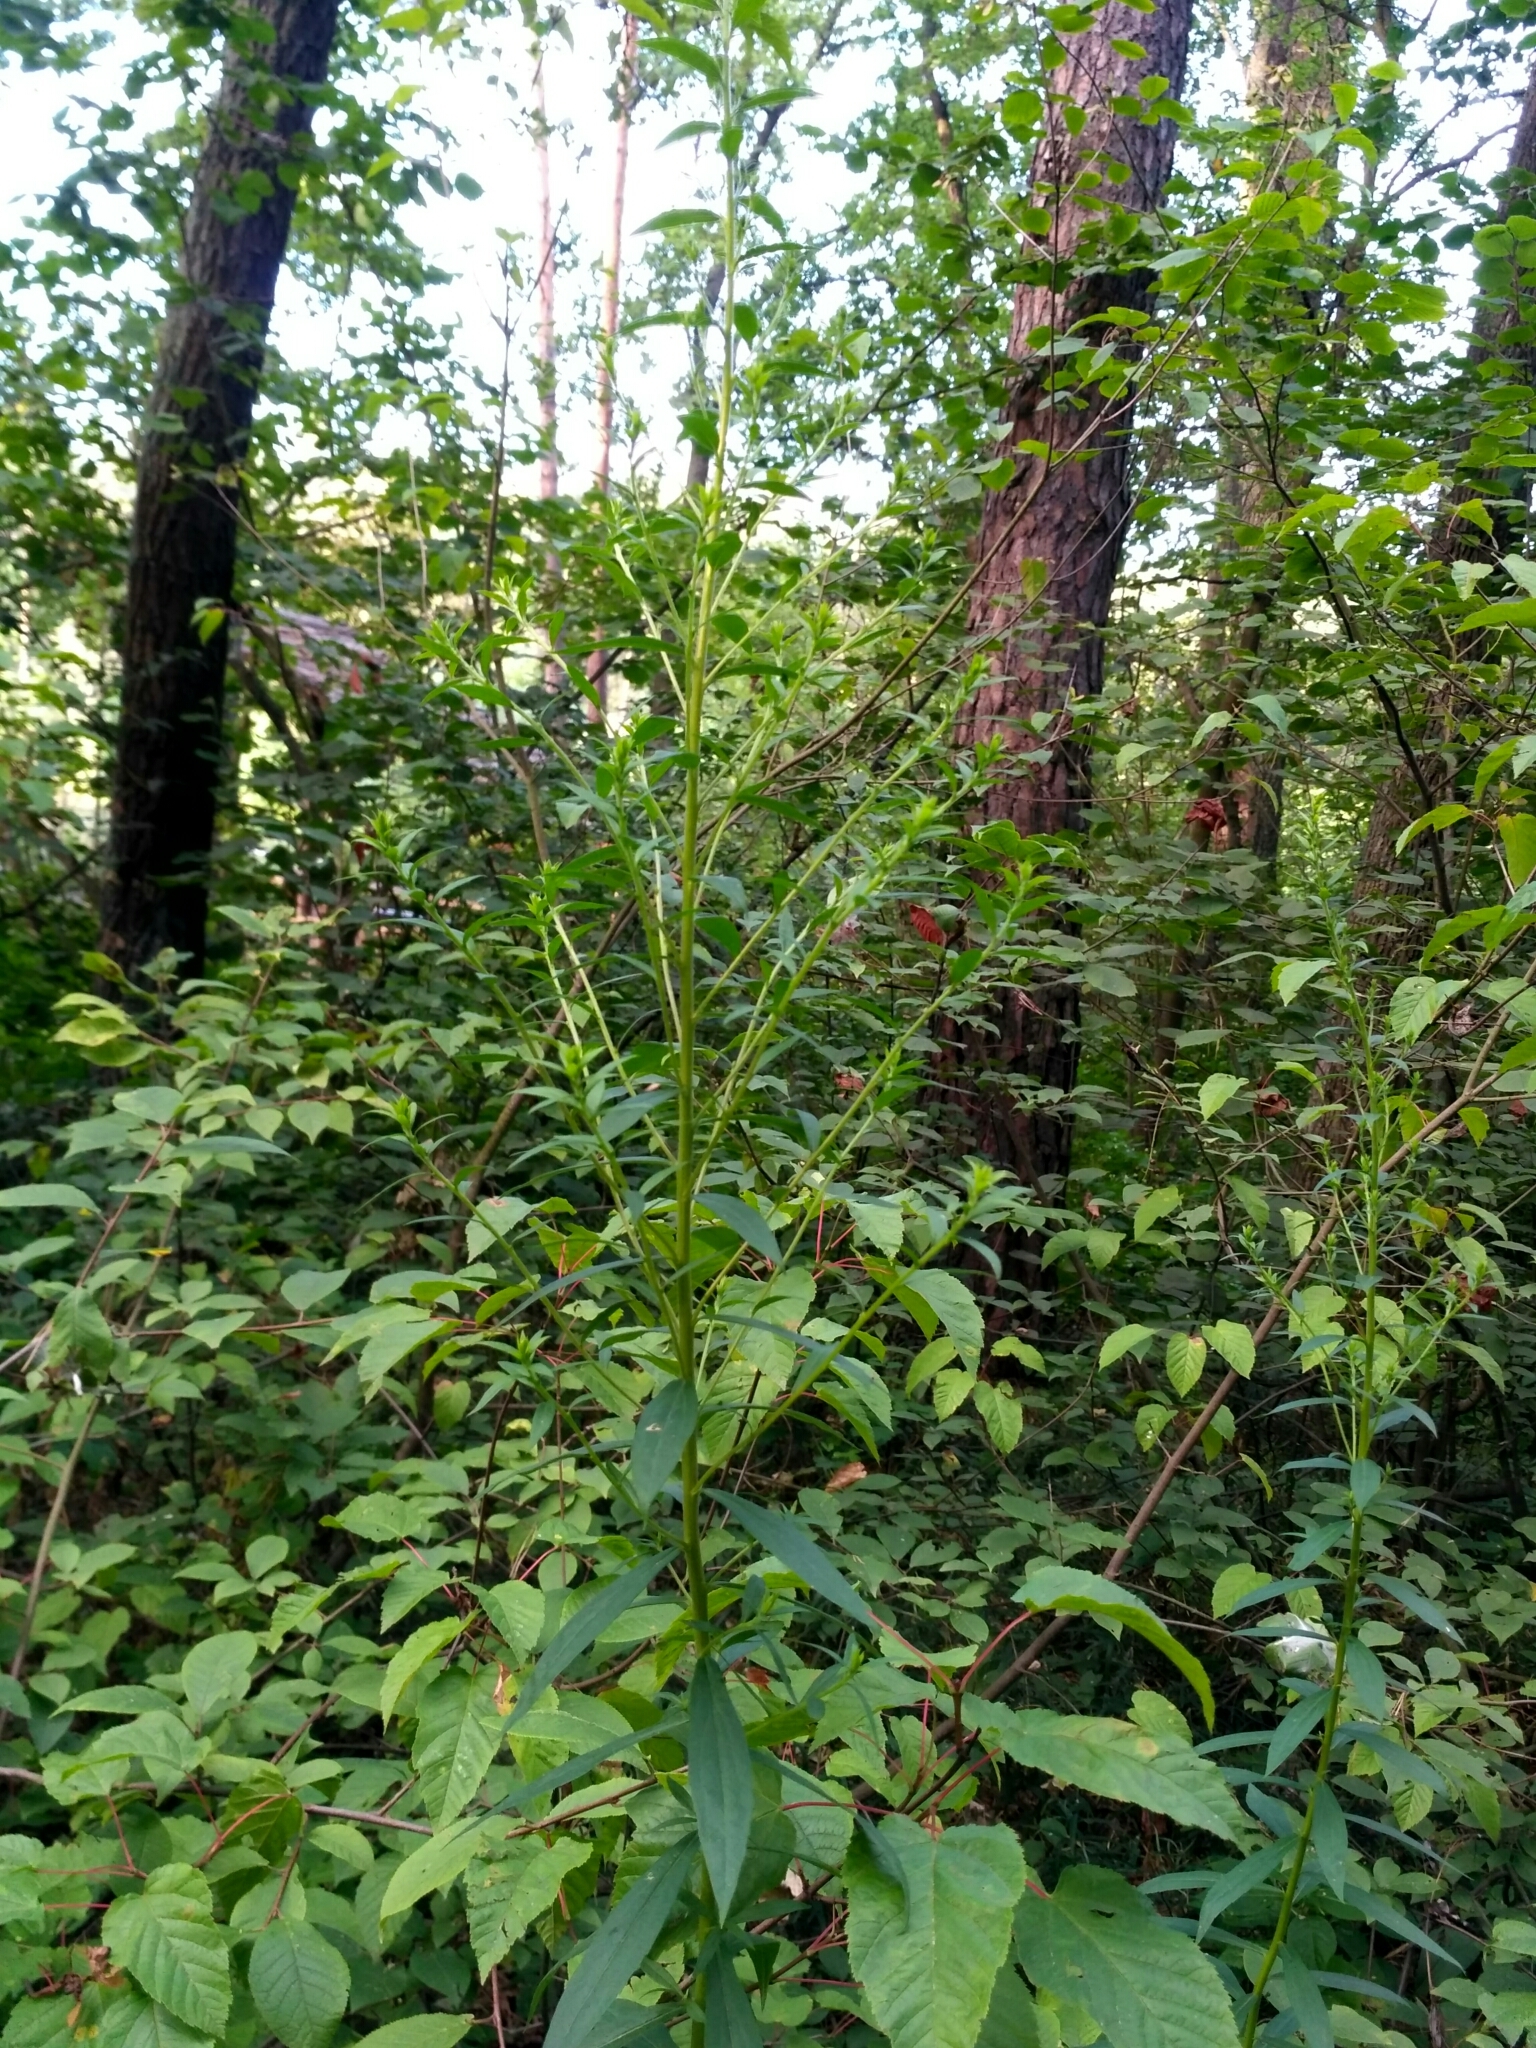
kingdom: Plantae
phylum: Tracheophyta
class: Magnoliopsida
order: Asterales
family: Asteraceae
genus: Solidago
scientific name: Solidago gigantea
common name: Giant goldenrod
